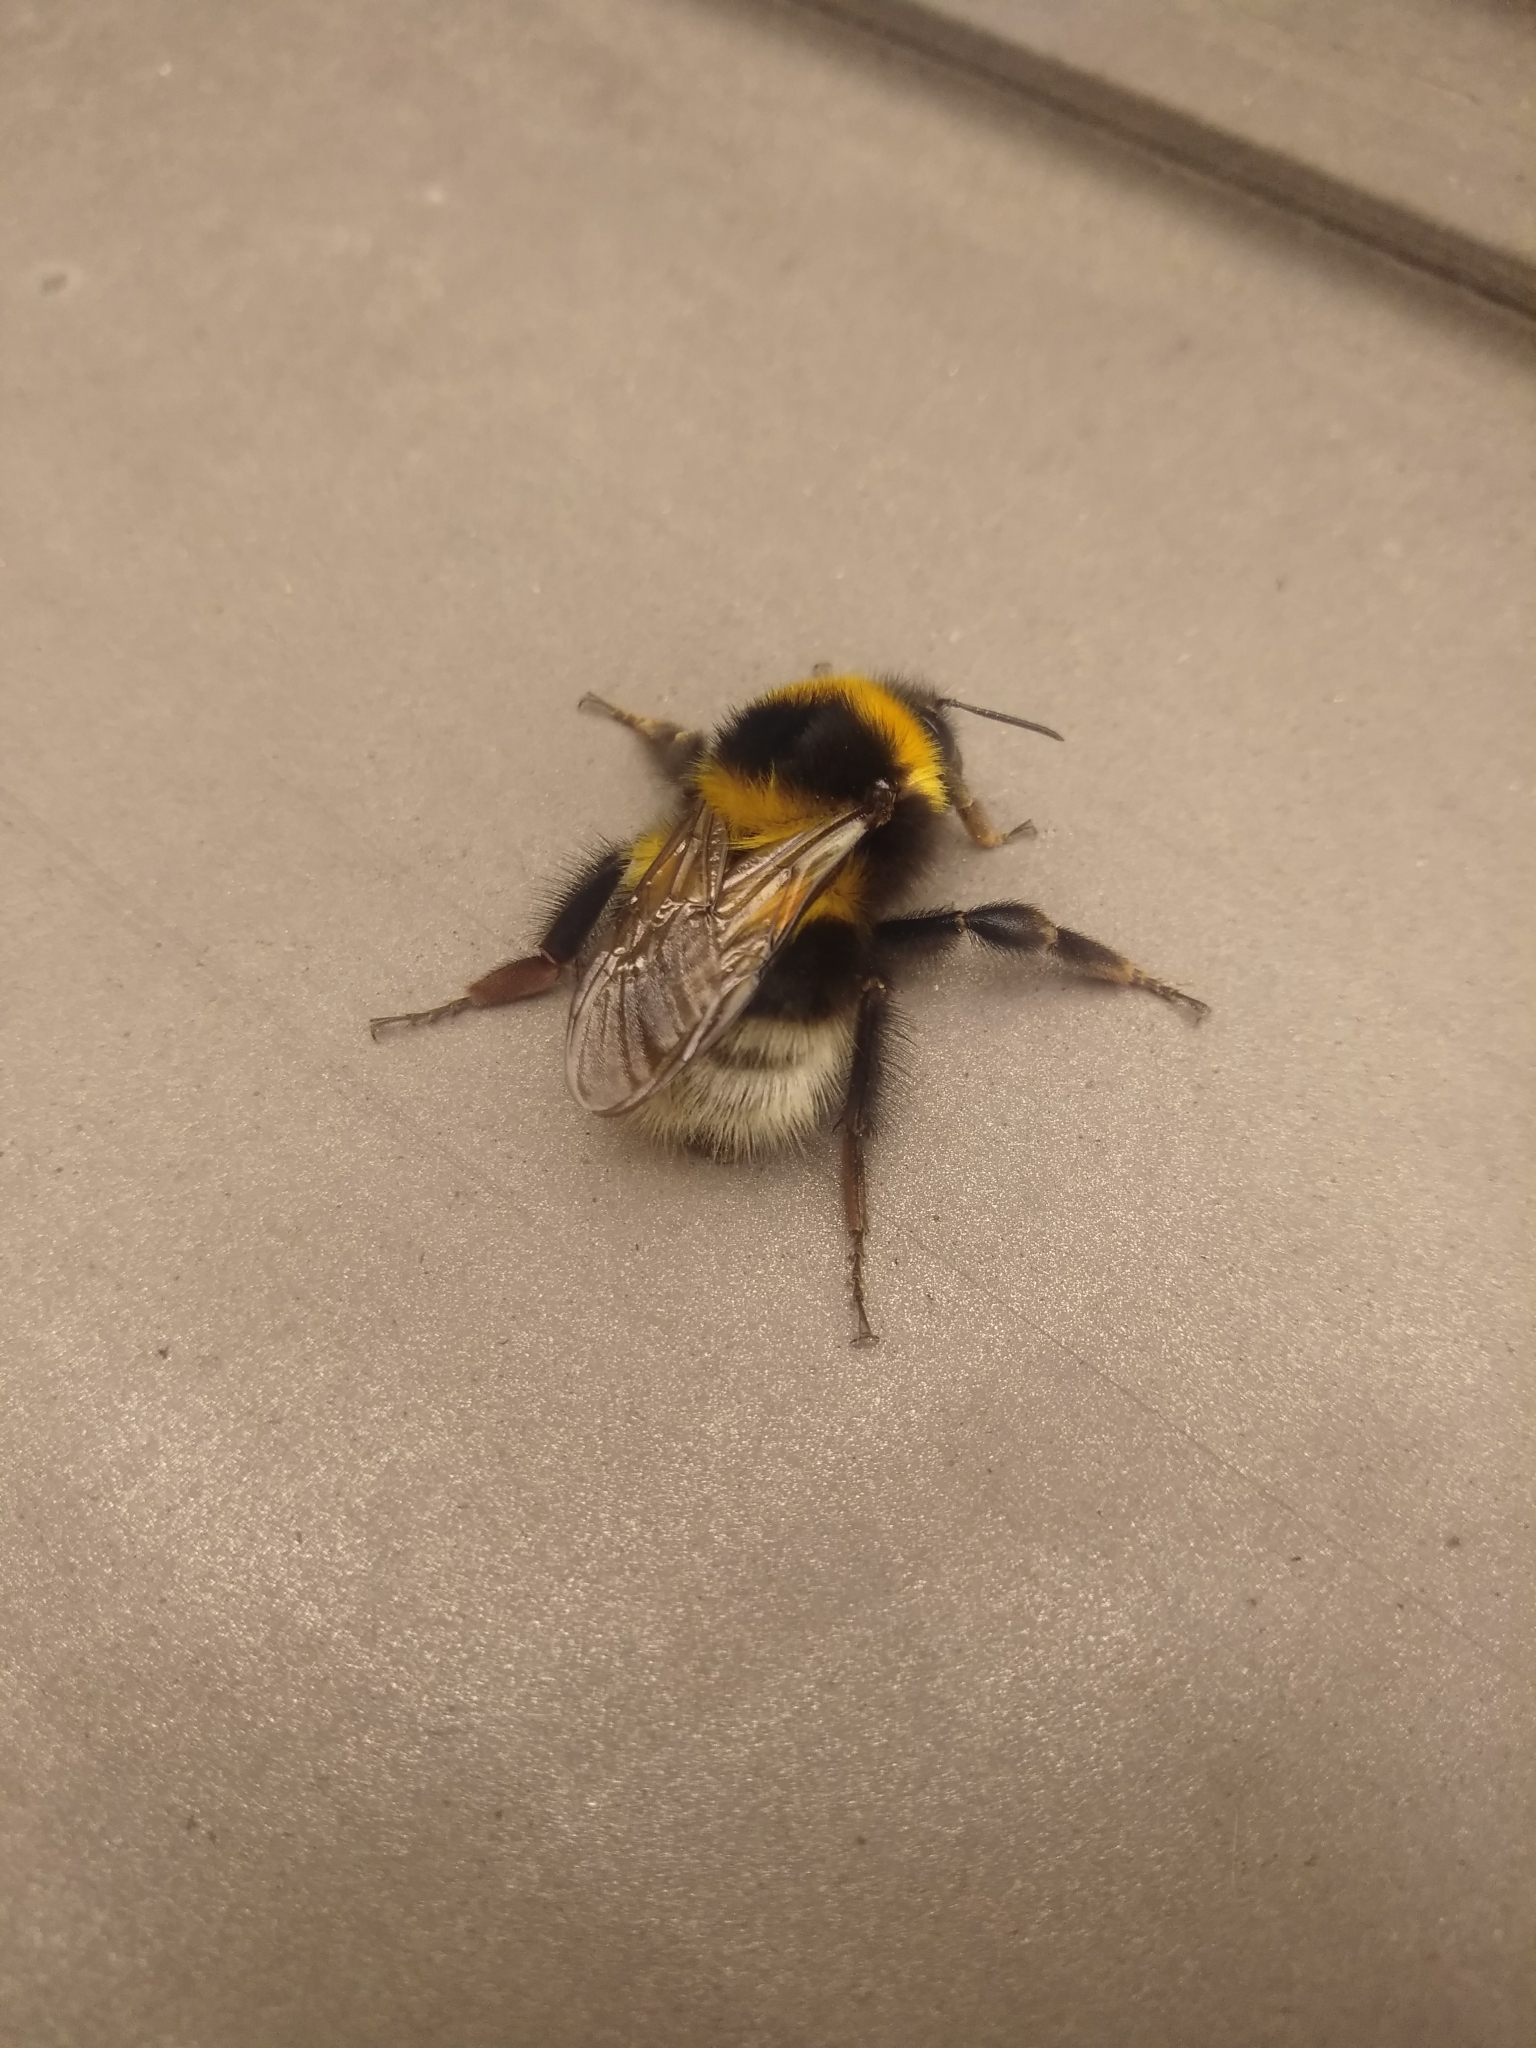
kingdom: Animalia
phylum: Arthropoda
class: Insecta
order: Hymenoptera
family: Apidae
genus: Bombus
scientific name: Bombus hortorum
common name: Garden bumblebee
